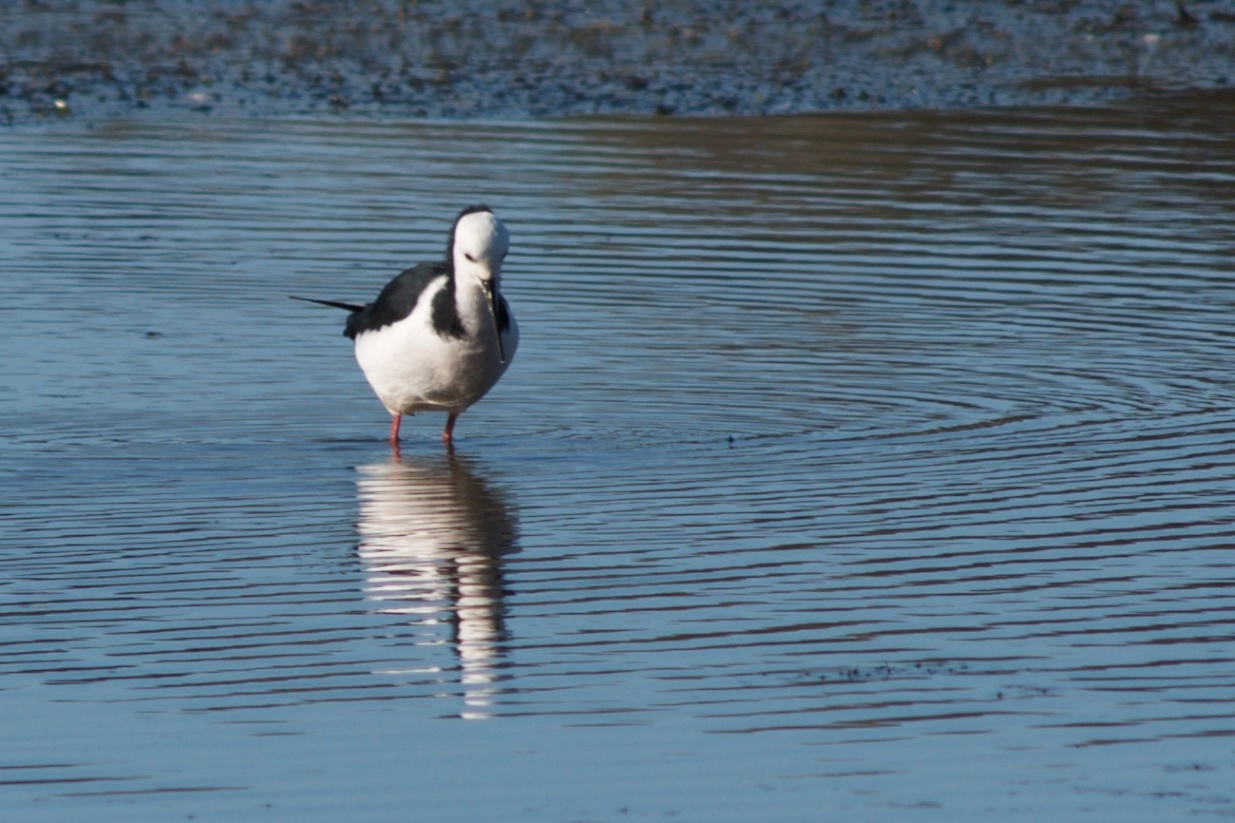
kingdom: Animalia
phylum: Chordata
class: Aves
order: Charadriiformes
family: Recurvirostridae
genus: Himantopus
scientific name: Himantopus leucocephalus
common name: White-headed stilt
